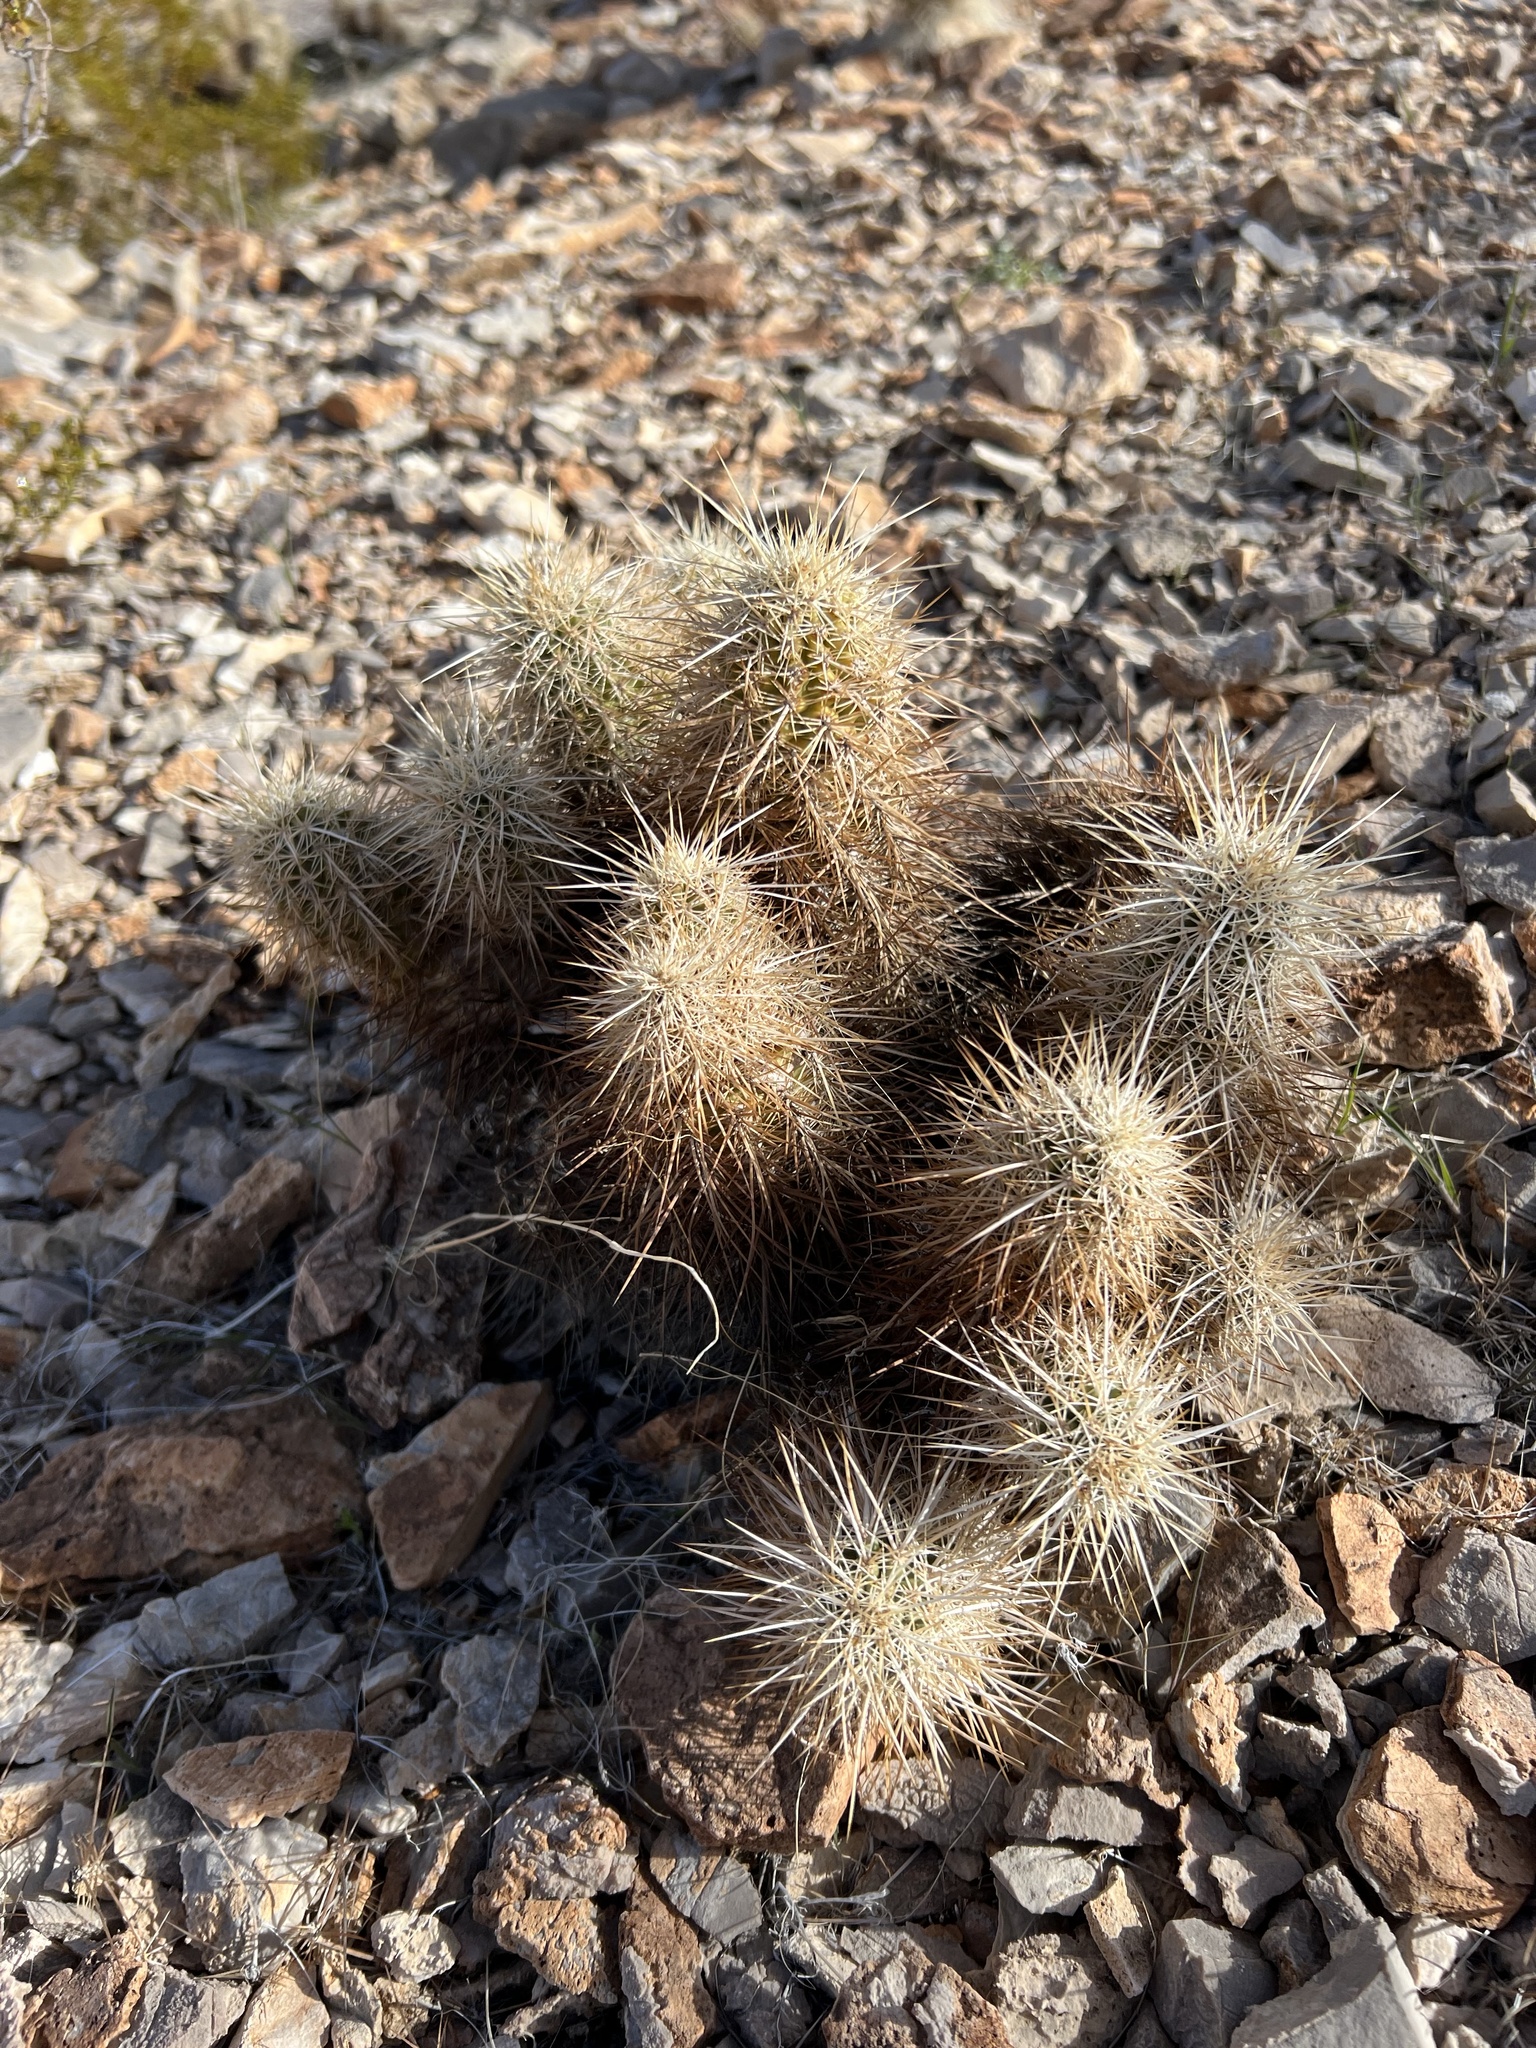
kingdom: Plantae
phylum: Tracheophyta
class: Magnoliopsida
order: Caryophyllales
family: Cactaceae
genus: Echinocereus
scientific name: Echinocereus engelmannii
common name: Engelmann's hedgehog cactus
